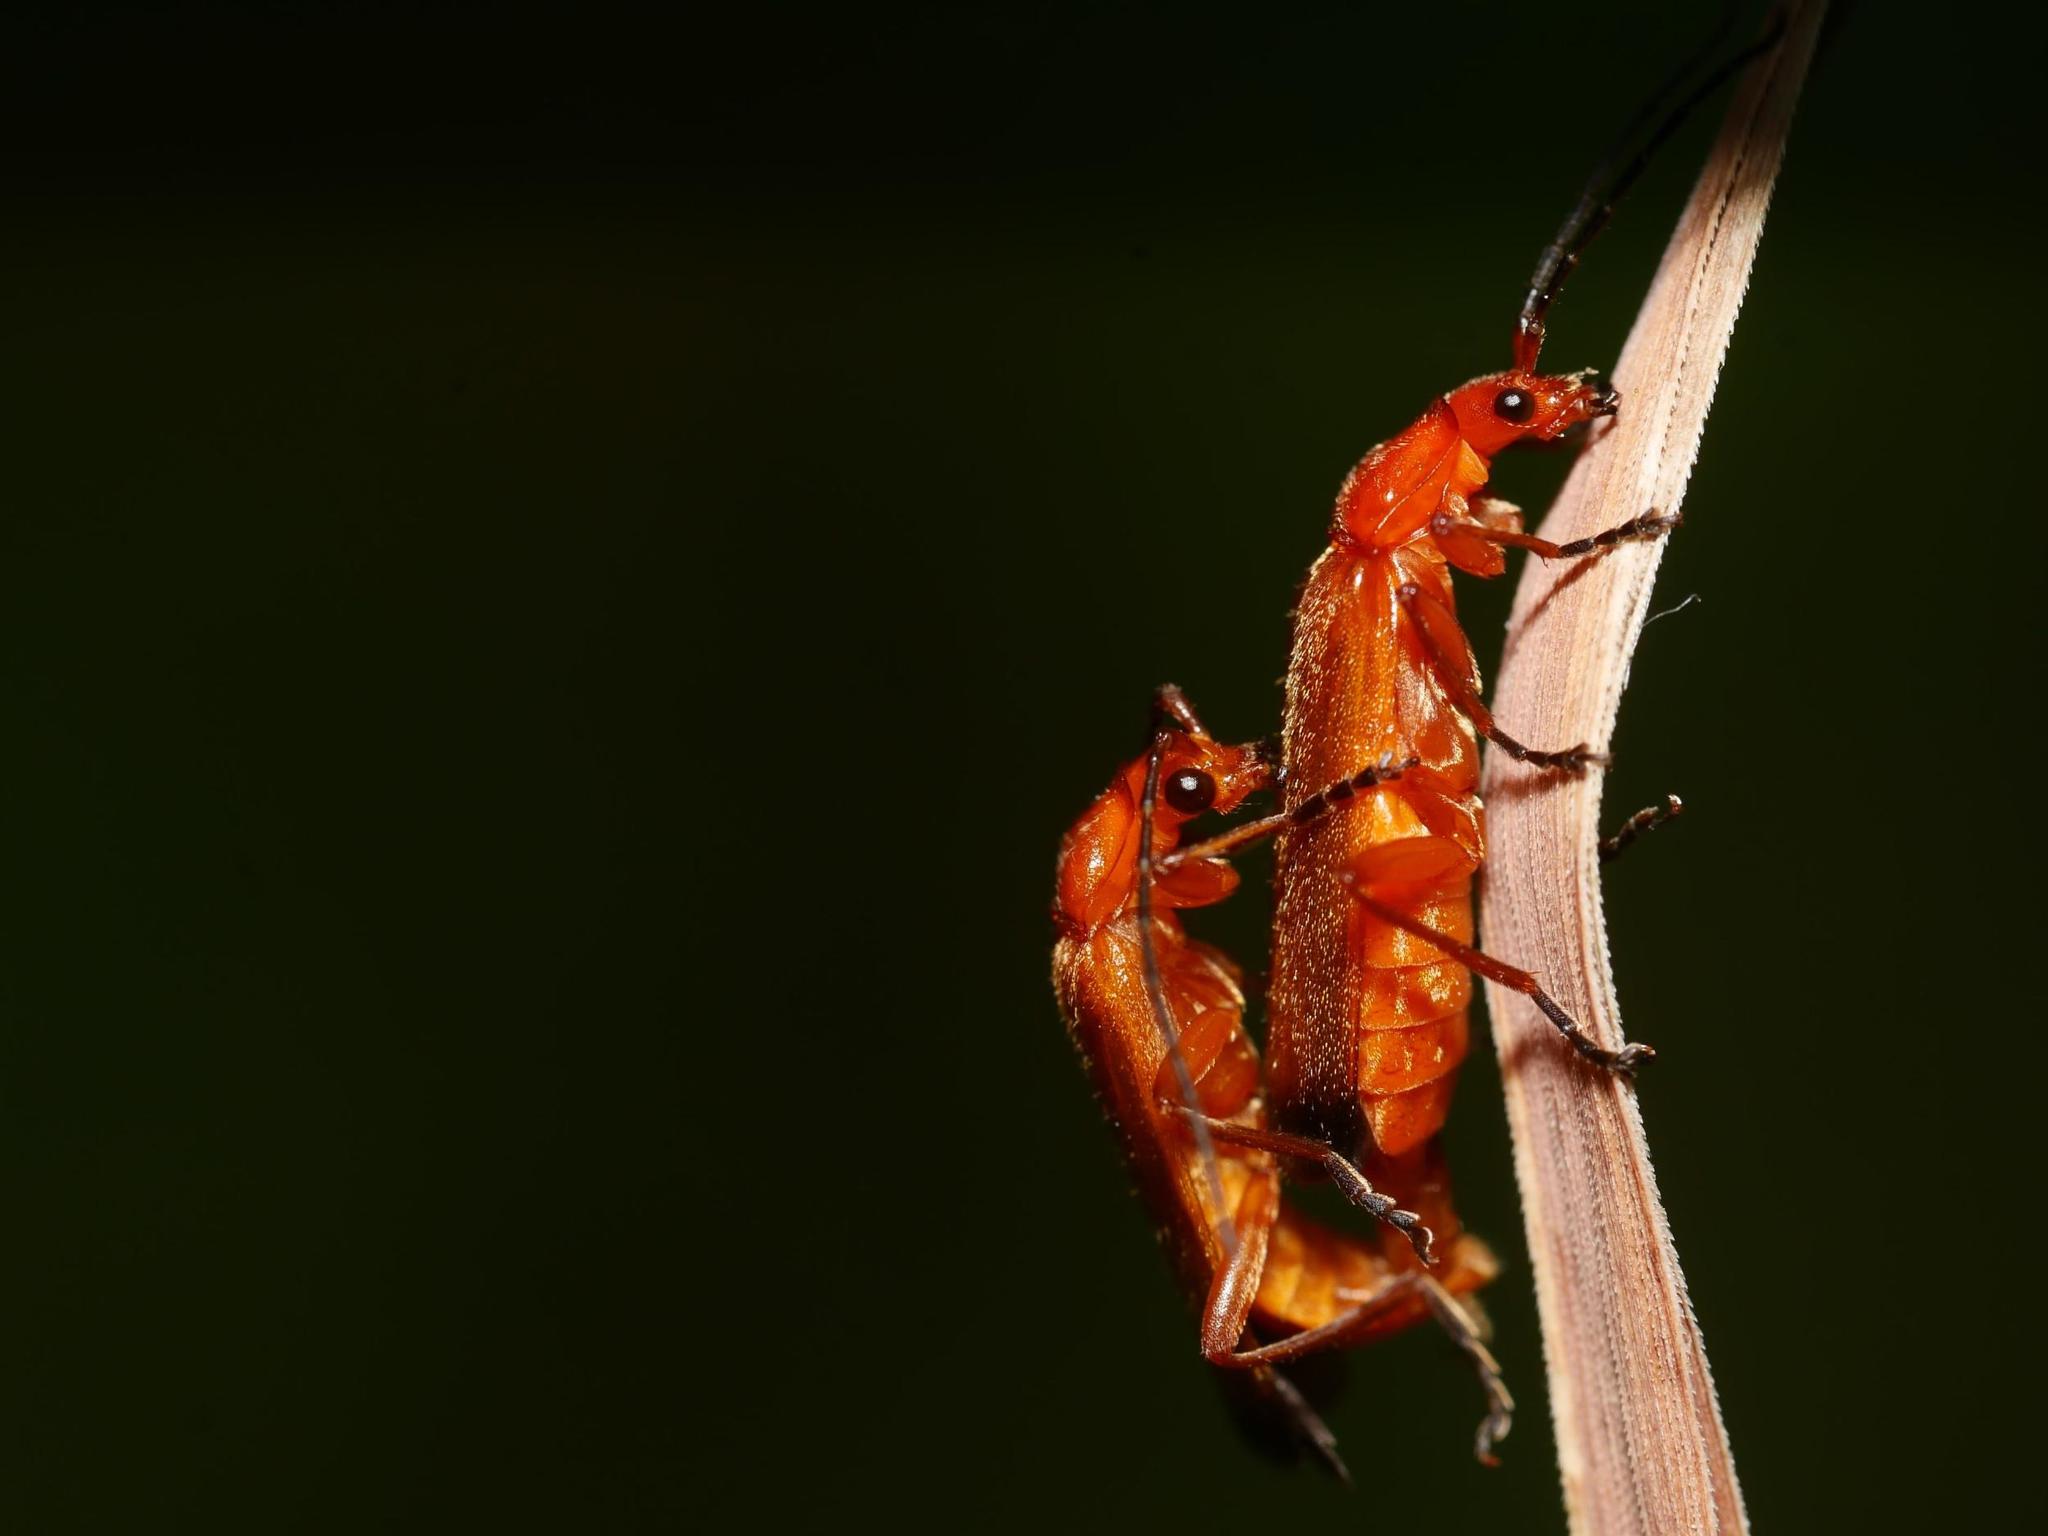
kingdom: Animalia
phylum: Arthropoda
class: Insecta
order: Coleoptera
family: Cantharidae
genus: Rhagonycha
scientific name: Rhagonycha fulva
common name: Common red soldier beetle
